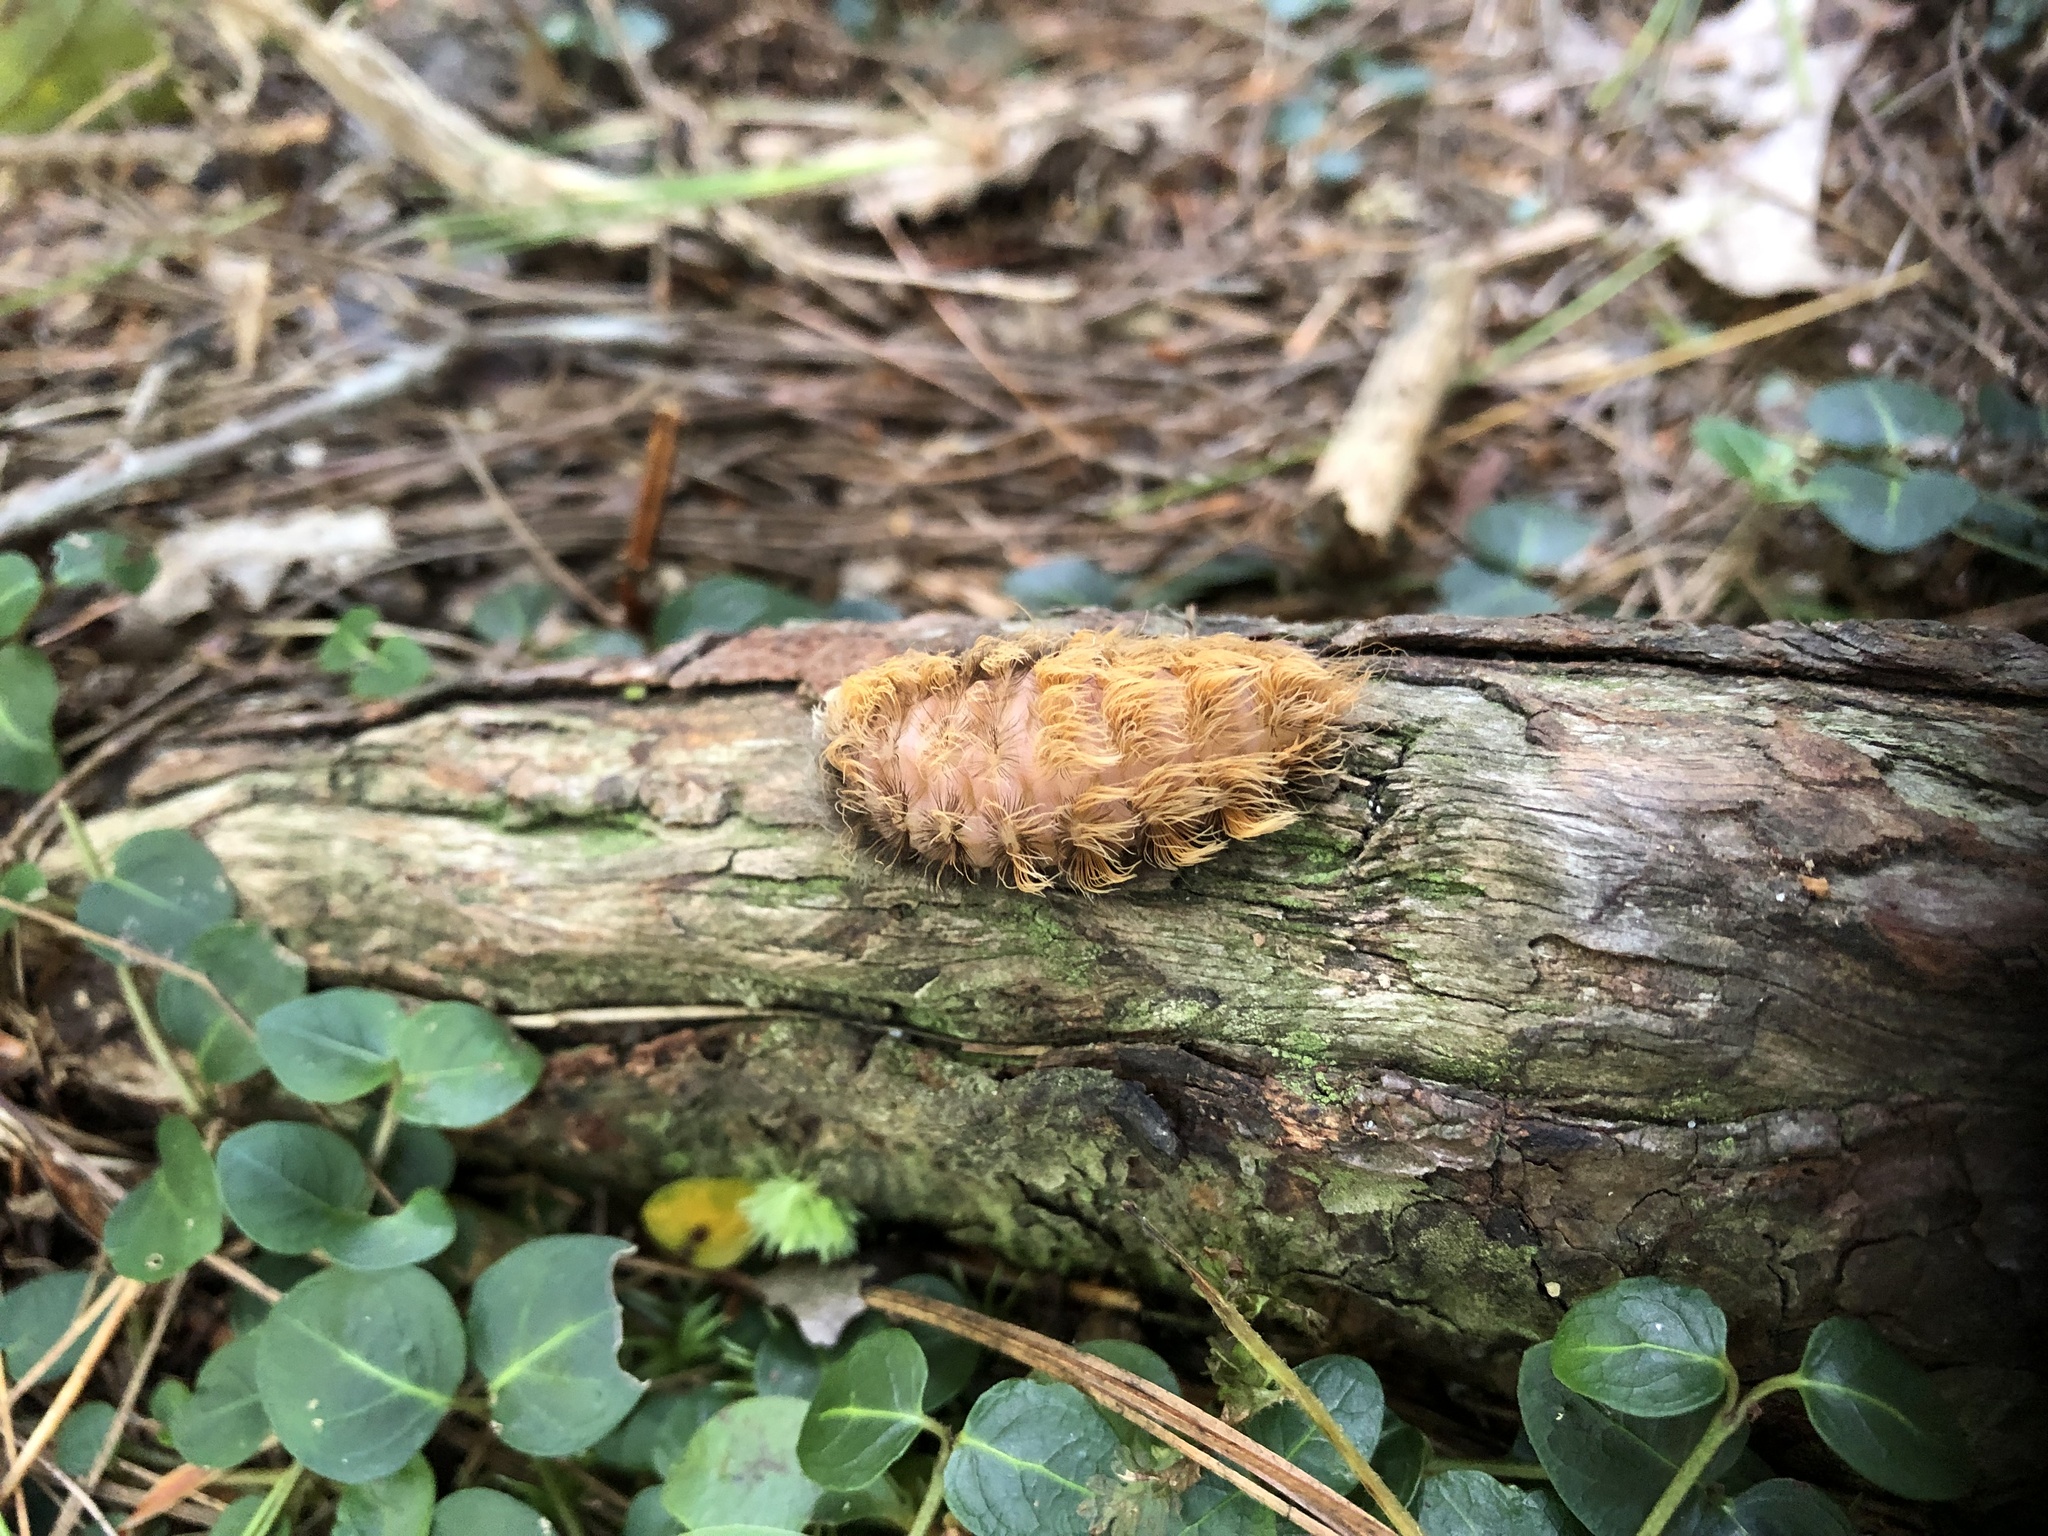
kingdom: Animalia
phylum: Arthropoda
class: Insecta
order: Lepidoptera
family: Megalopygidae
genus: Megalopyge
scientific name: Megalopyge crispata
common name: Black-waved flannel moth
